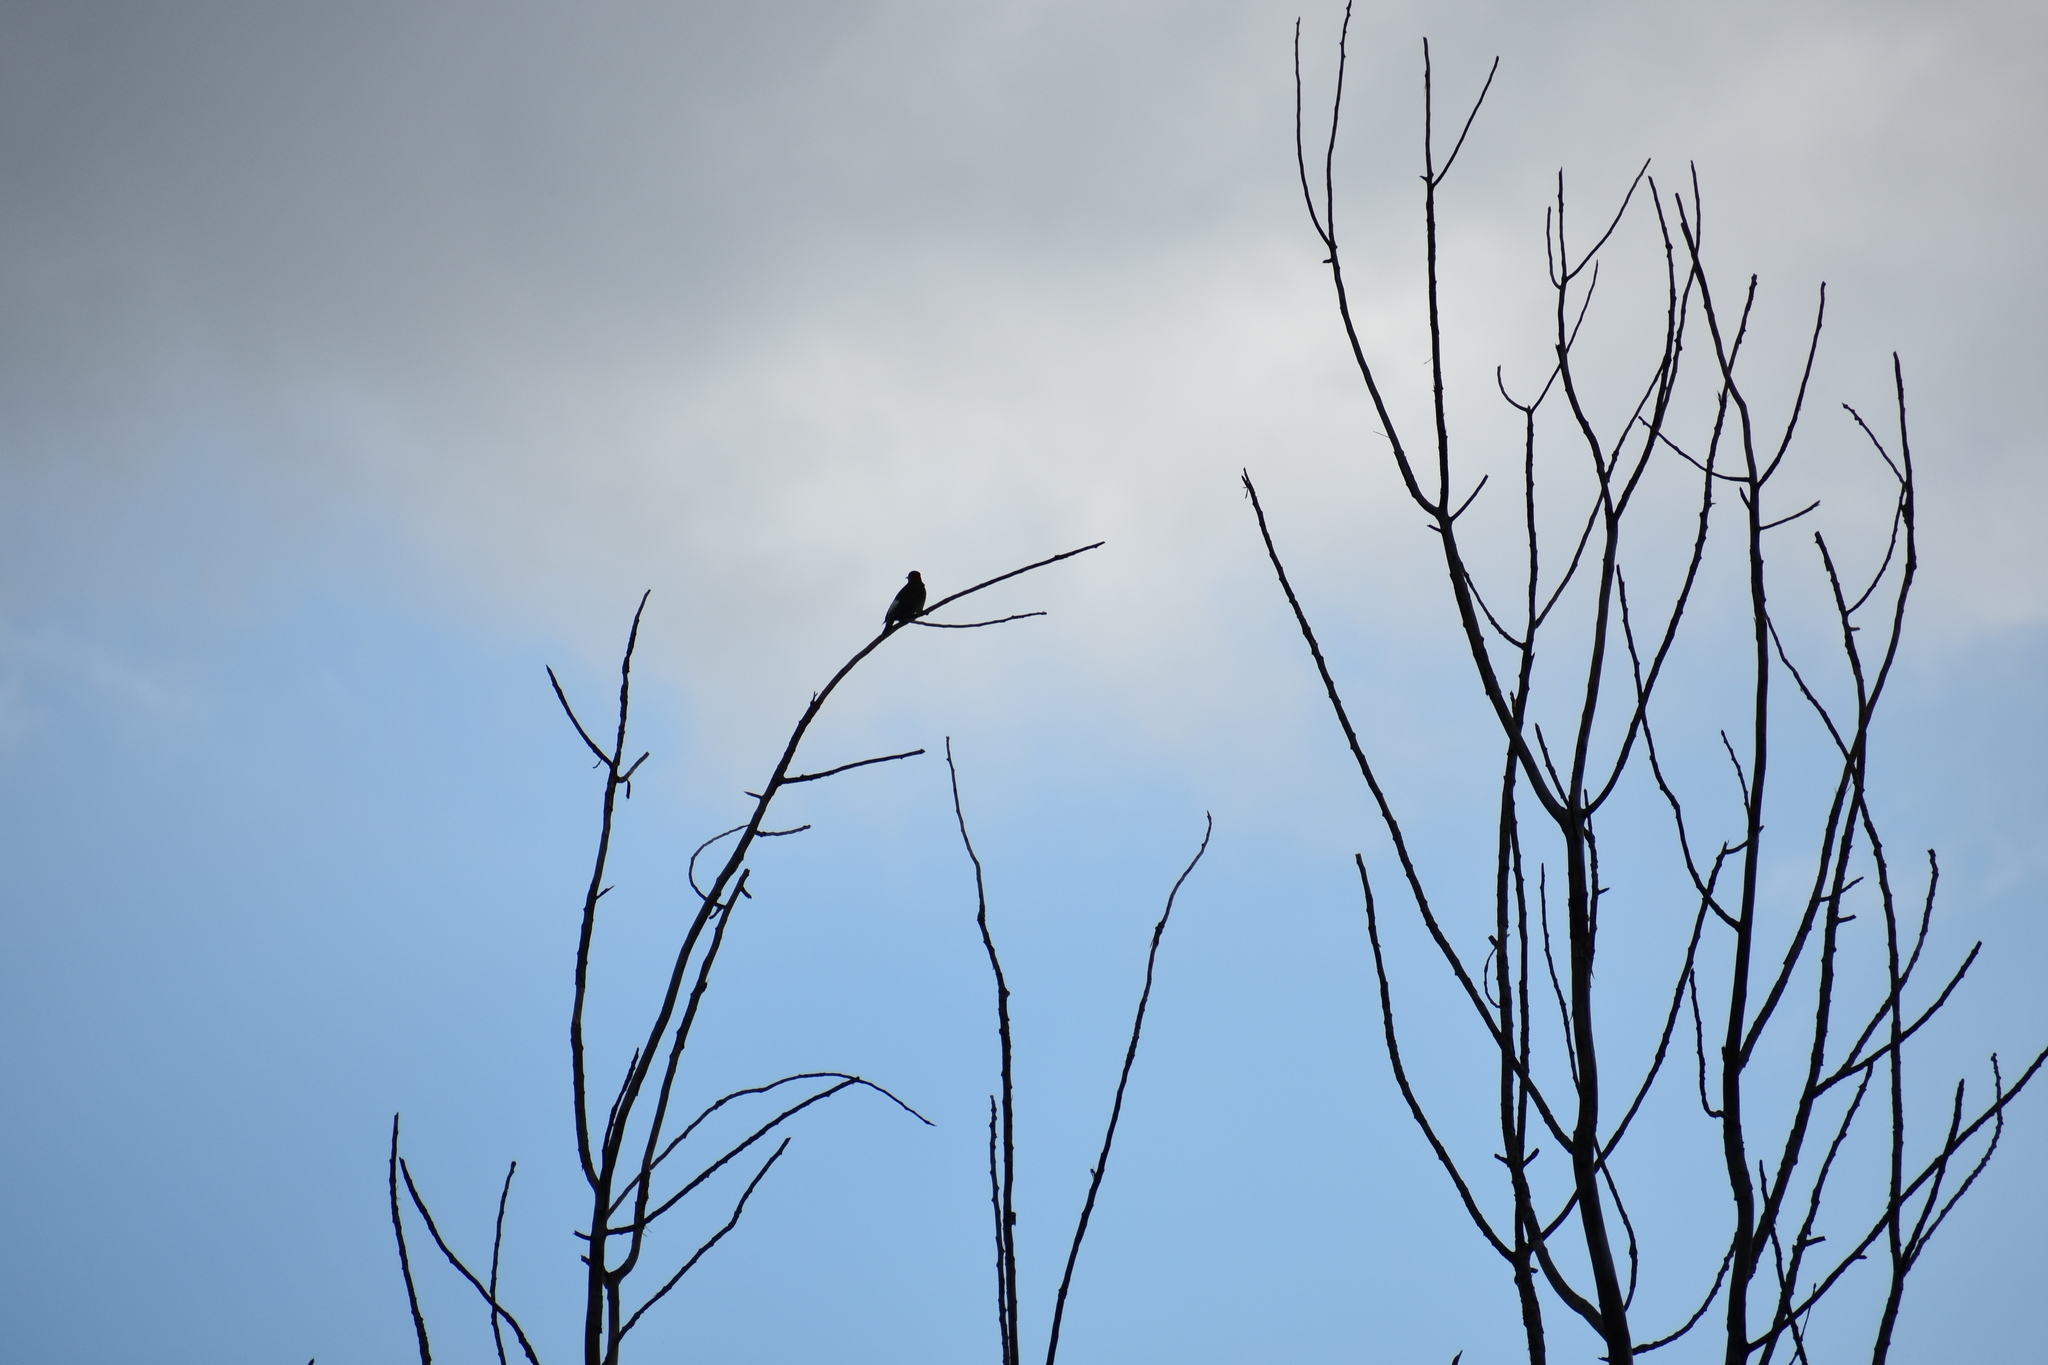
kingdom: Animalia
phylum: Chordata
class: Aves
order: Piciformes
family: Picidae
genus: Colaptes
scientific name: Colaptes auratus
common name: Northern flicker
